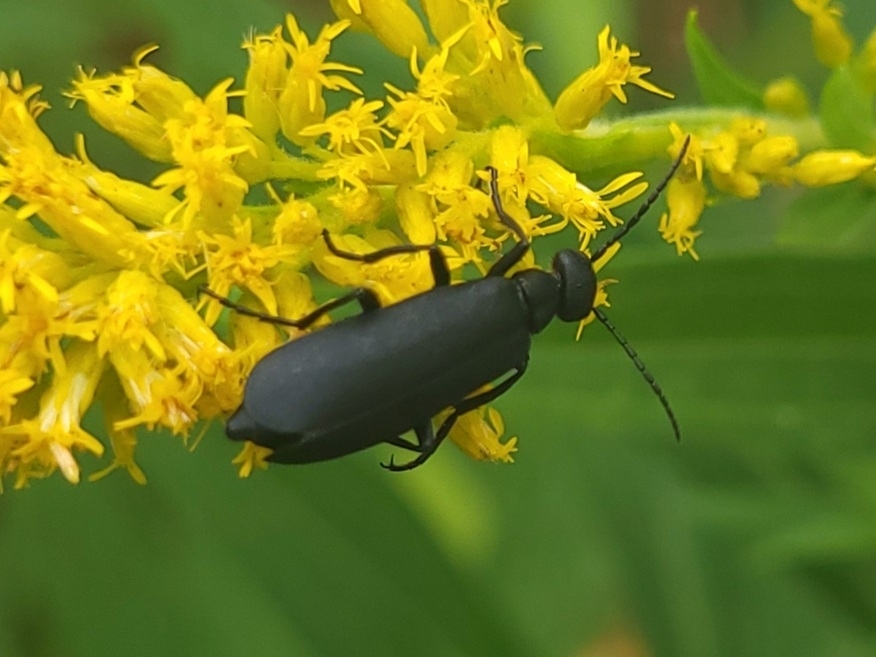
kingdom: Animalia
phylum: Arthropoda
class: Insecta
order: Coleoptera
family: Meloidae
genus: Epicauta
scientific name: Epicauta pensylvanica
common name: Black blister beetle
